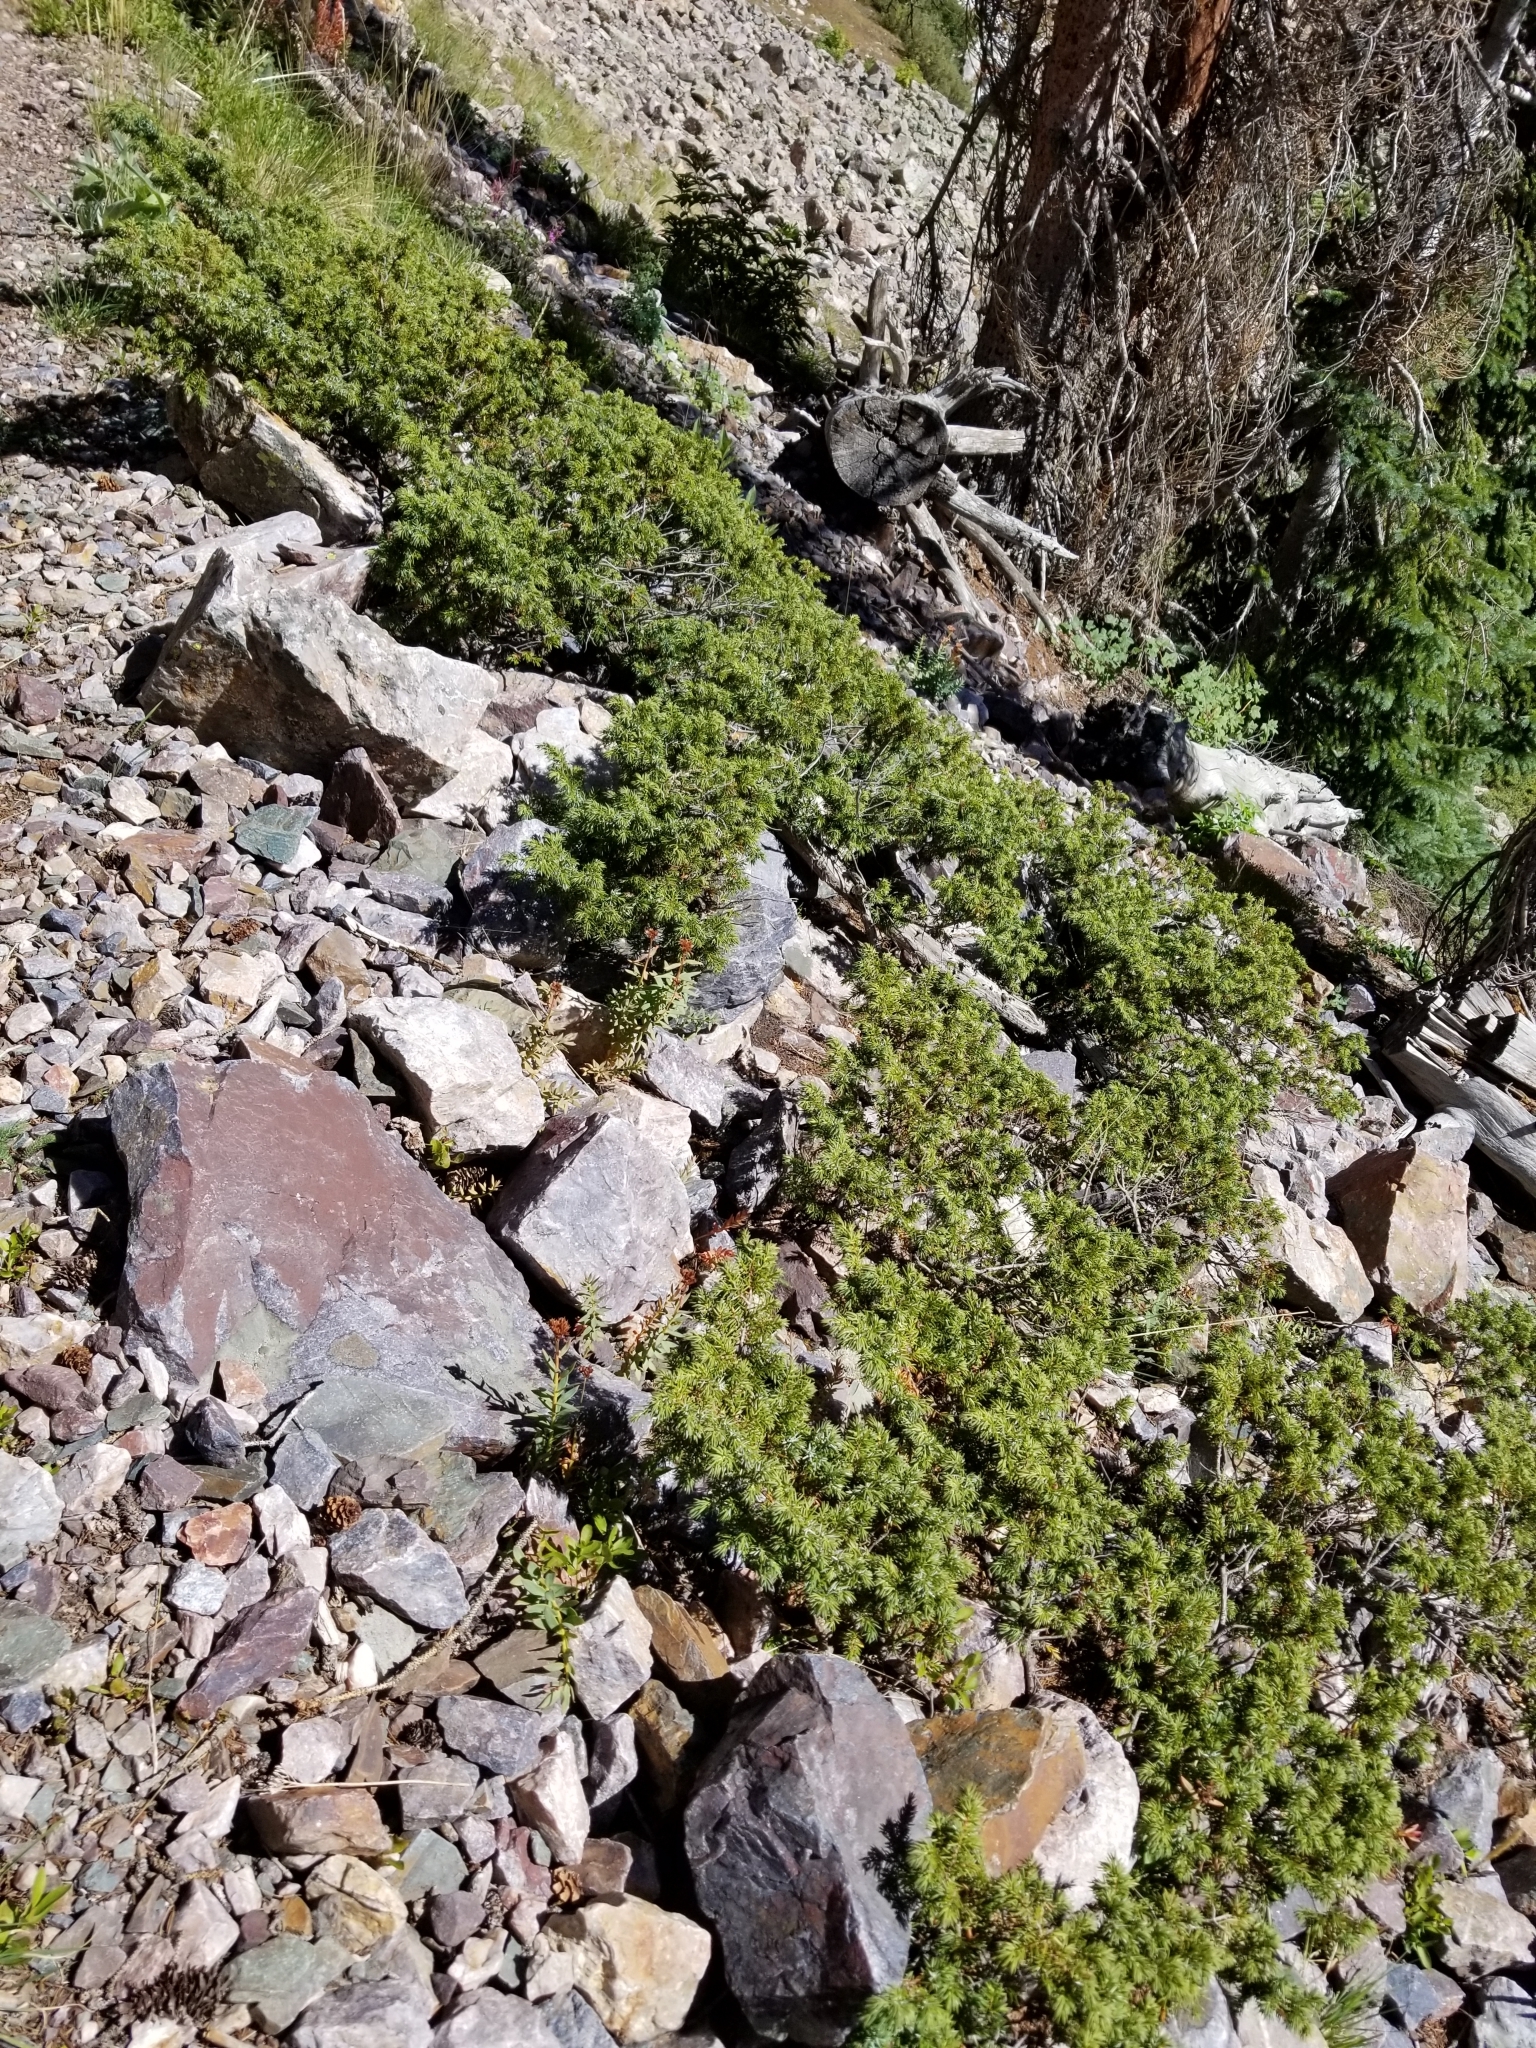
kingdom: Plantae
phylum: Tracheophyta
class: Pinopsida
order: Pinales
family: Cupressaceae
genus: Juniperus
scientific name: Juniperus communis
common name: Common juniper
